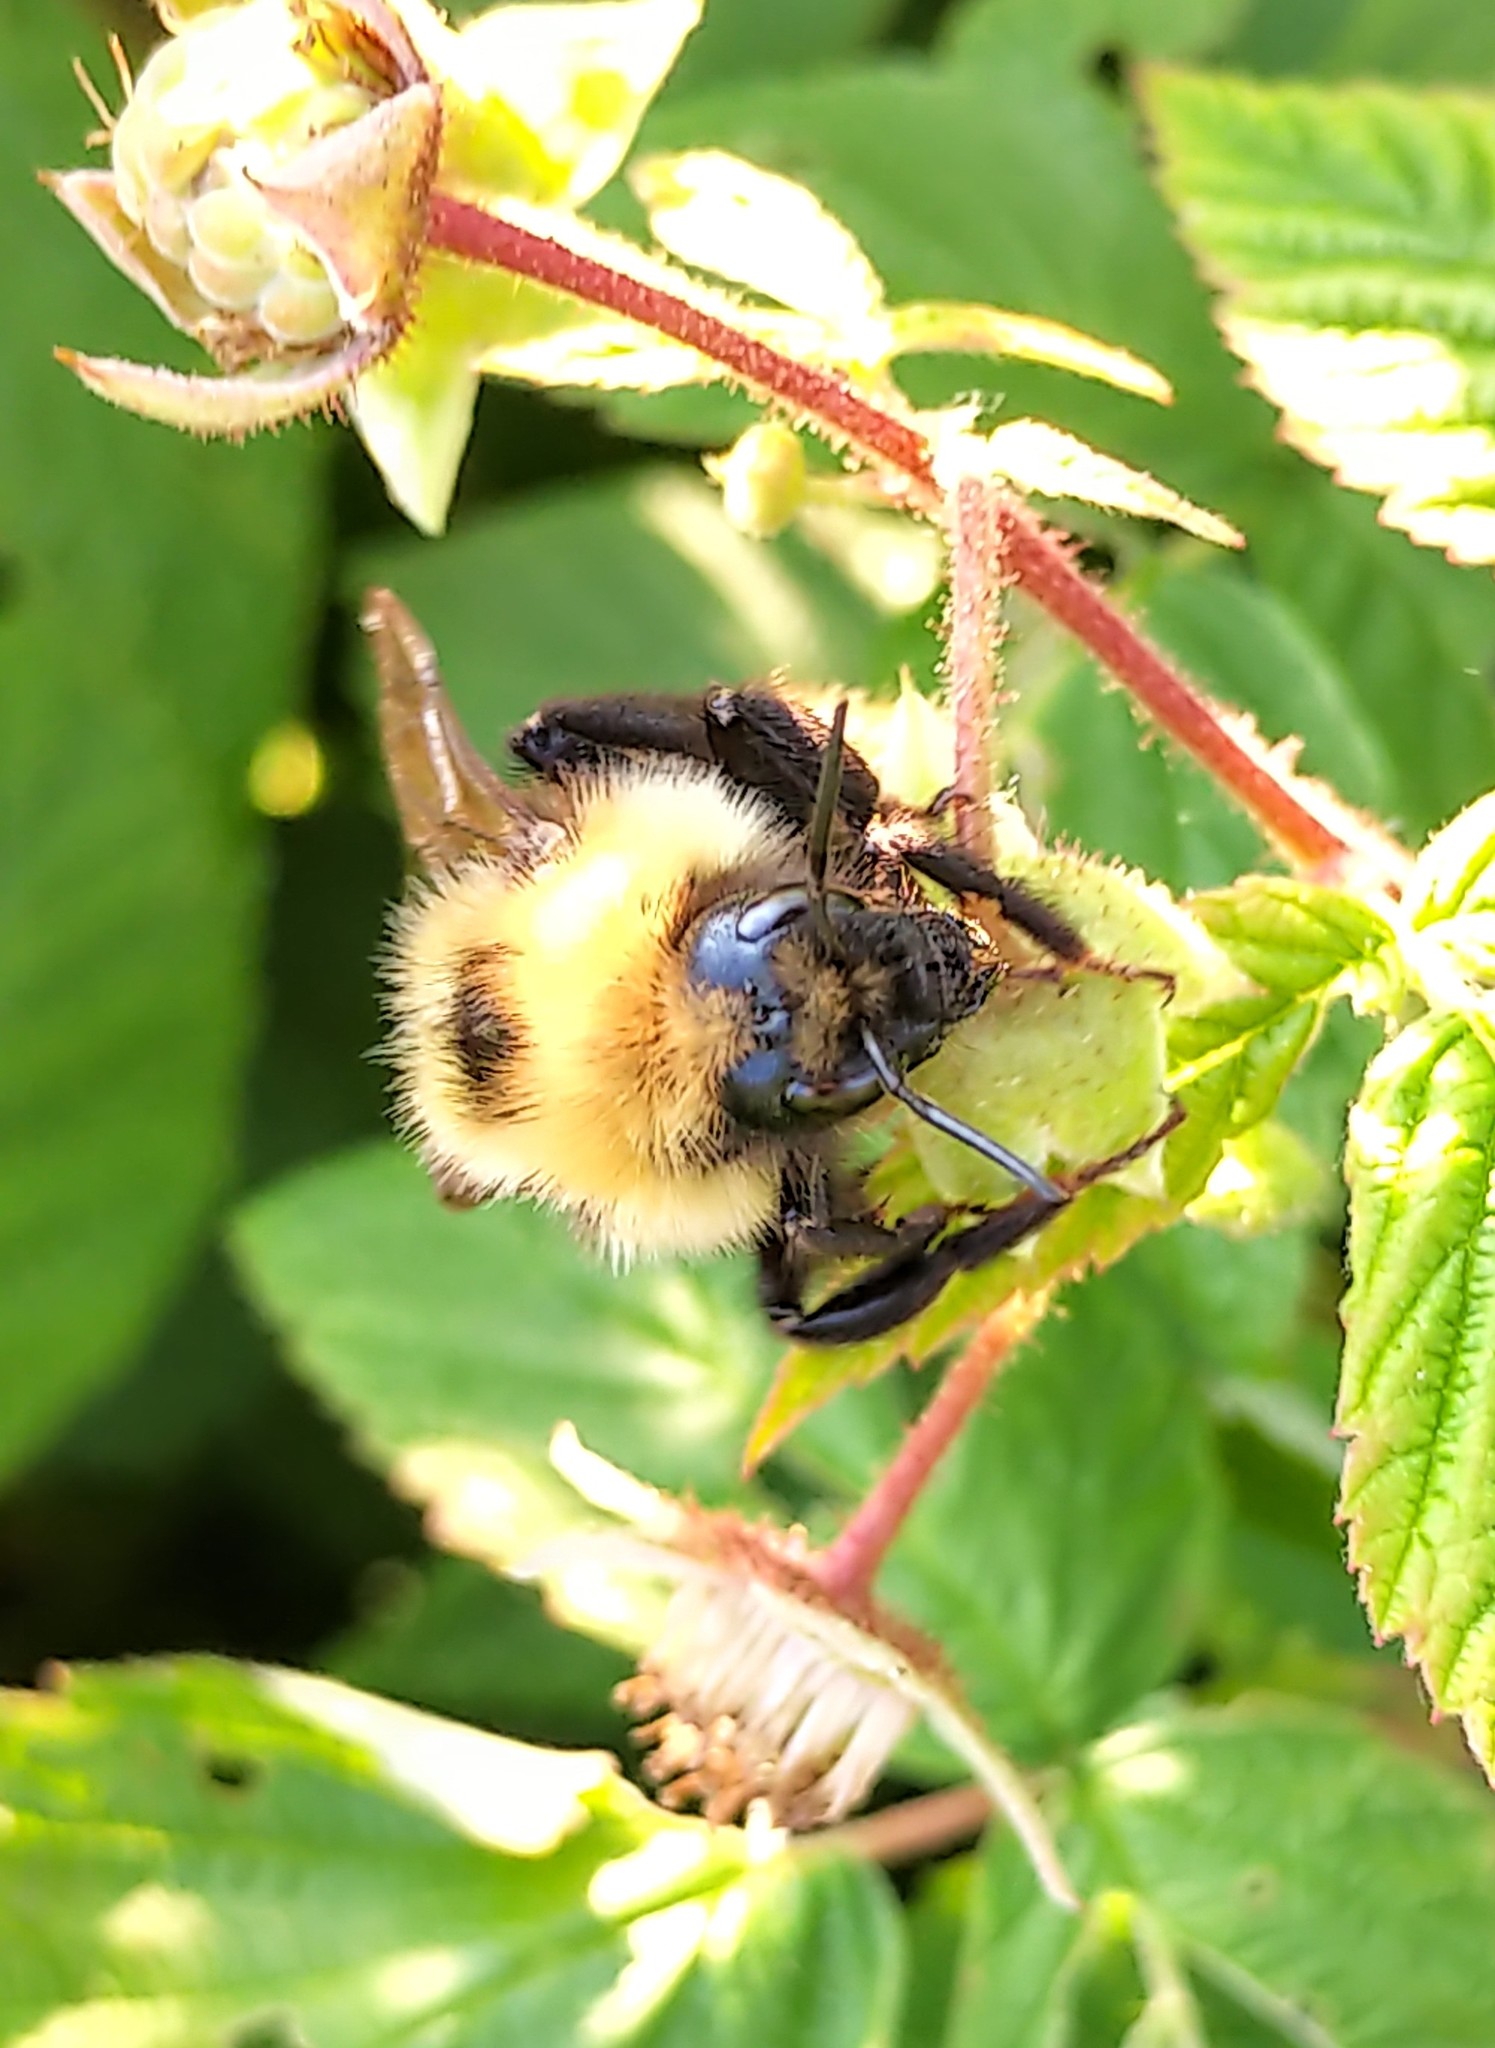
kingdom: Animalia
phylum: Arthropoda
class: Insecta
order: Hymenoptera
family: Apidae
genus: Bombus
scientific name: Bombus insularis
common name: Indiscriminate cuckoo bumble bee
